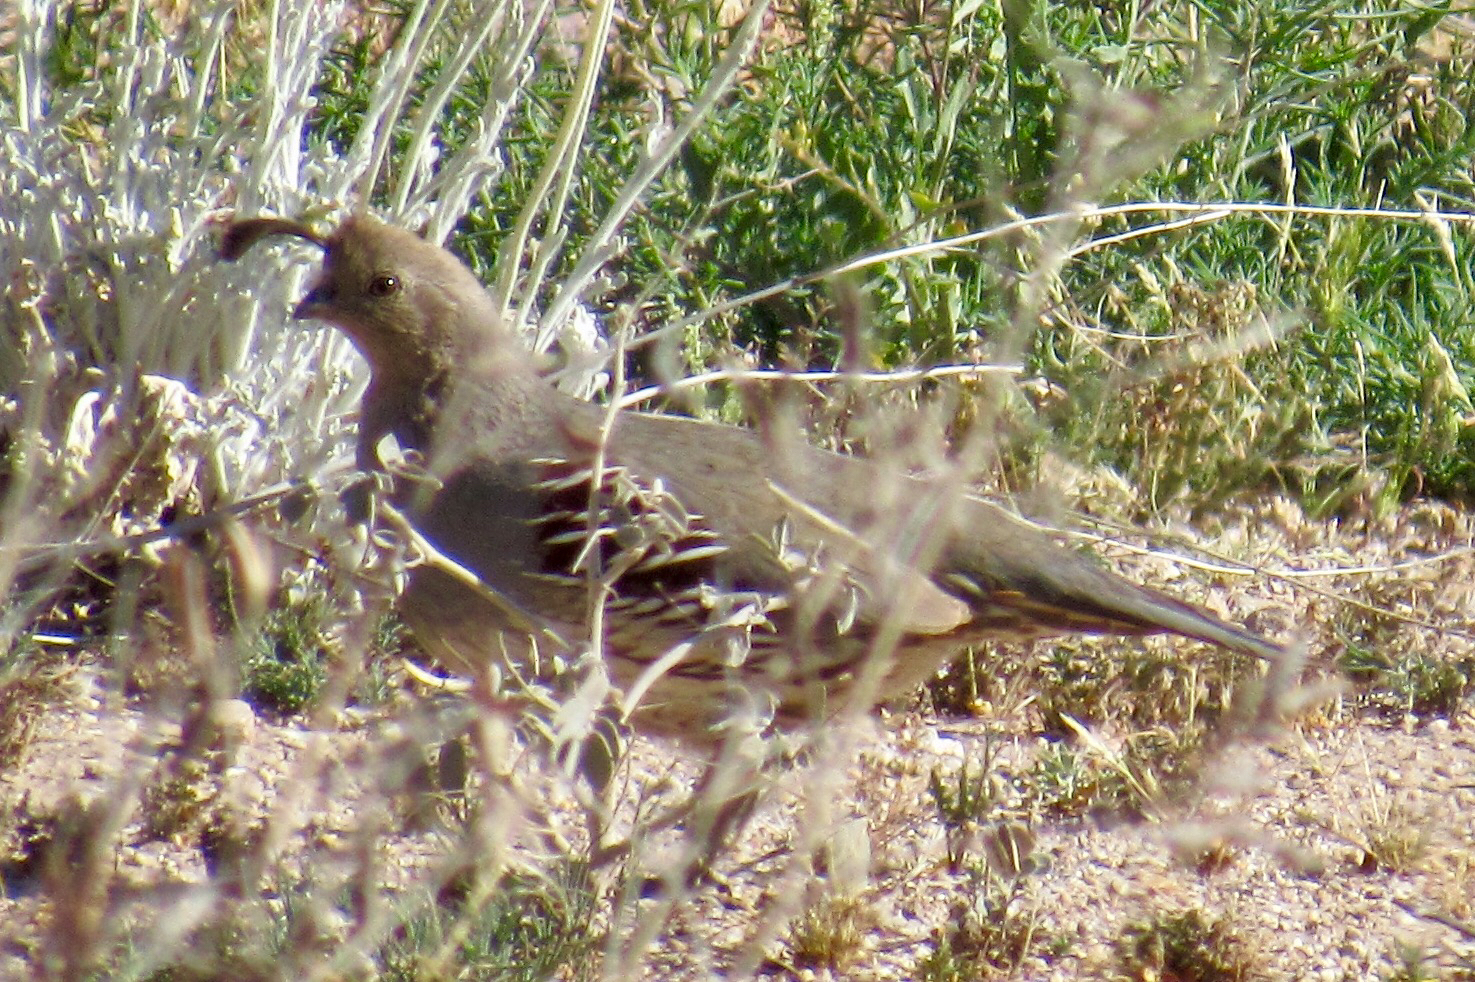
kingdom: Animalia
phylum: Chordata
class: Aves
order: Galliformes
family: Odontophoridae
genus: Callipepla
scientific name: Callipepla gambelii
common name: Gambel's quail
